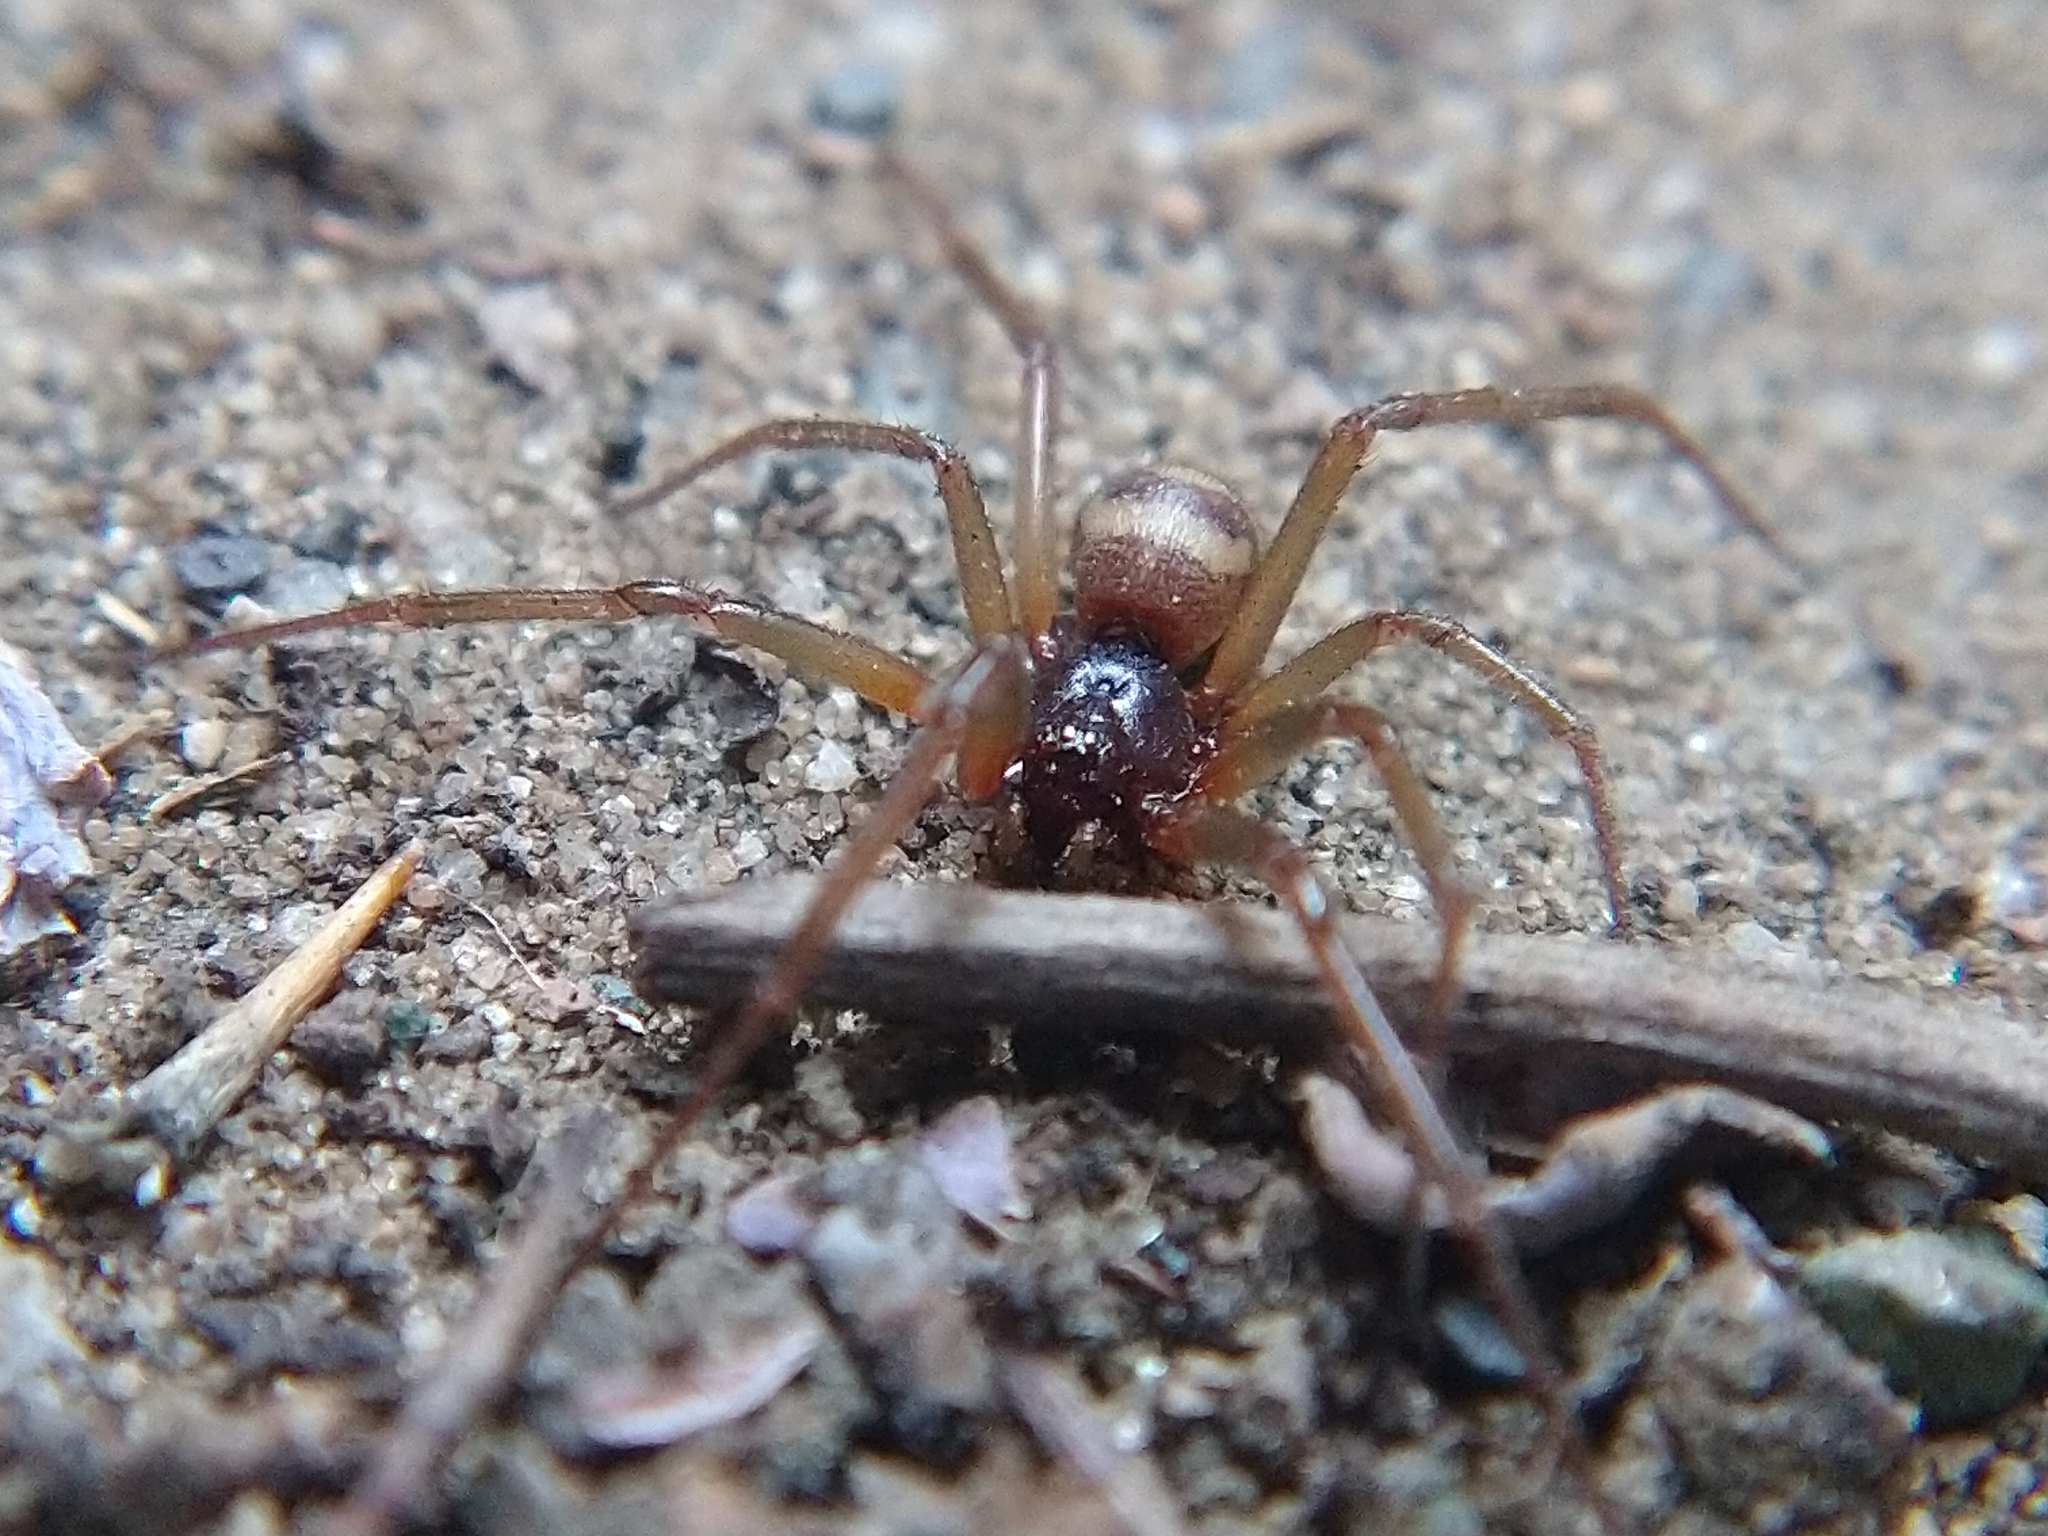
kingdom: Animalia
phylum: Arthropoda
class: Arachnida
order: Araneae
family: Theridiidae
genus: Steatoda
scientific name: Steatoda grossa
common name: False black widow
